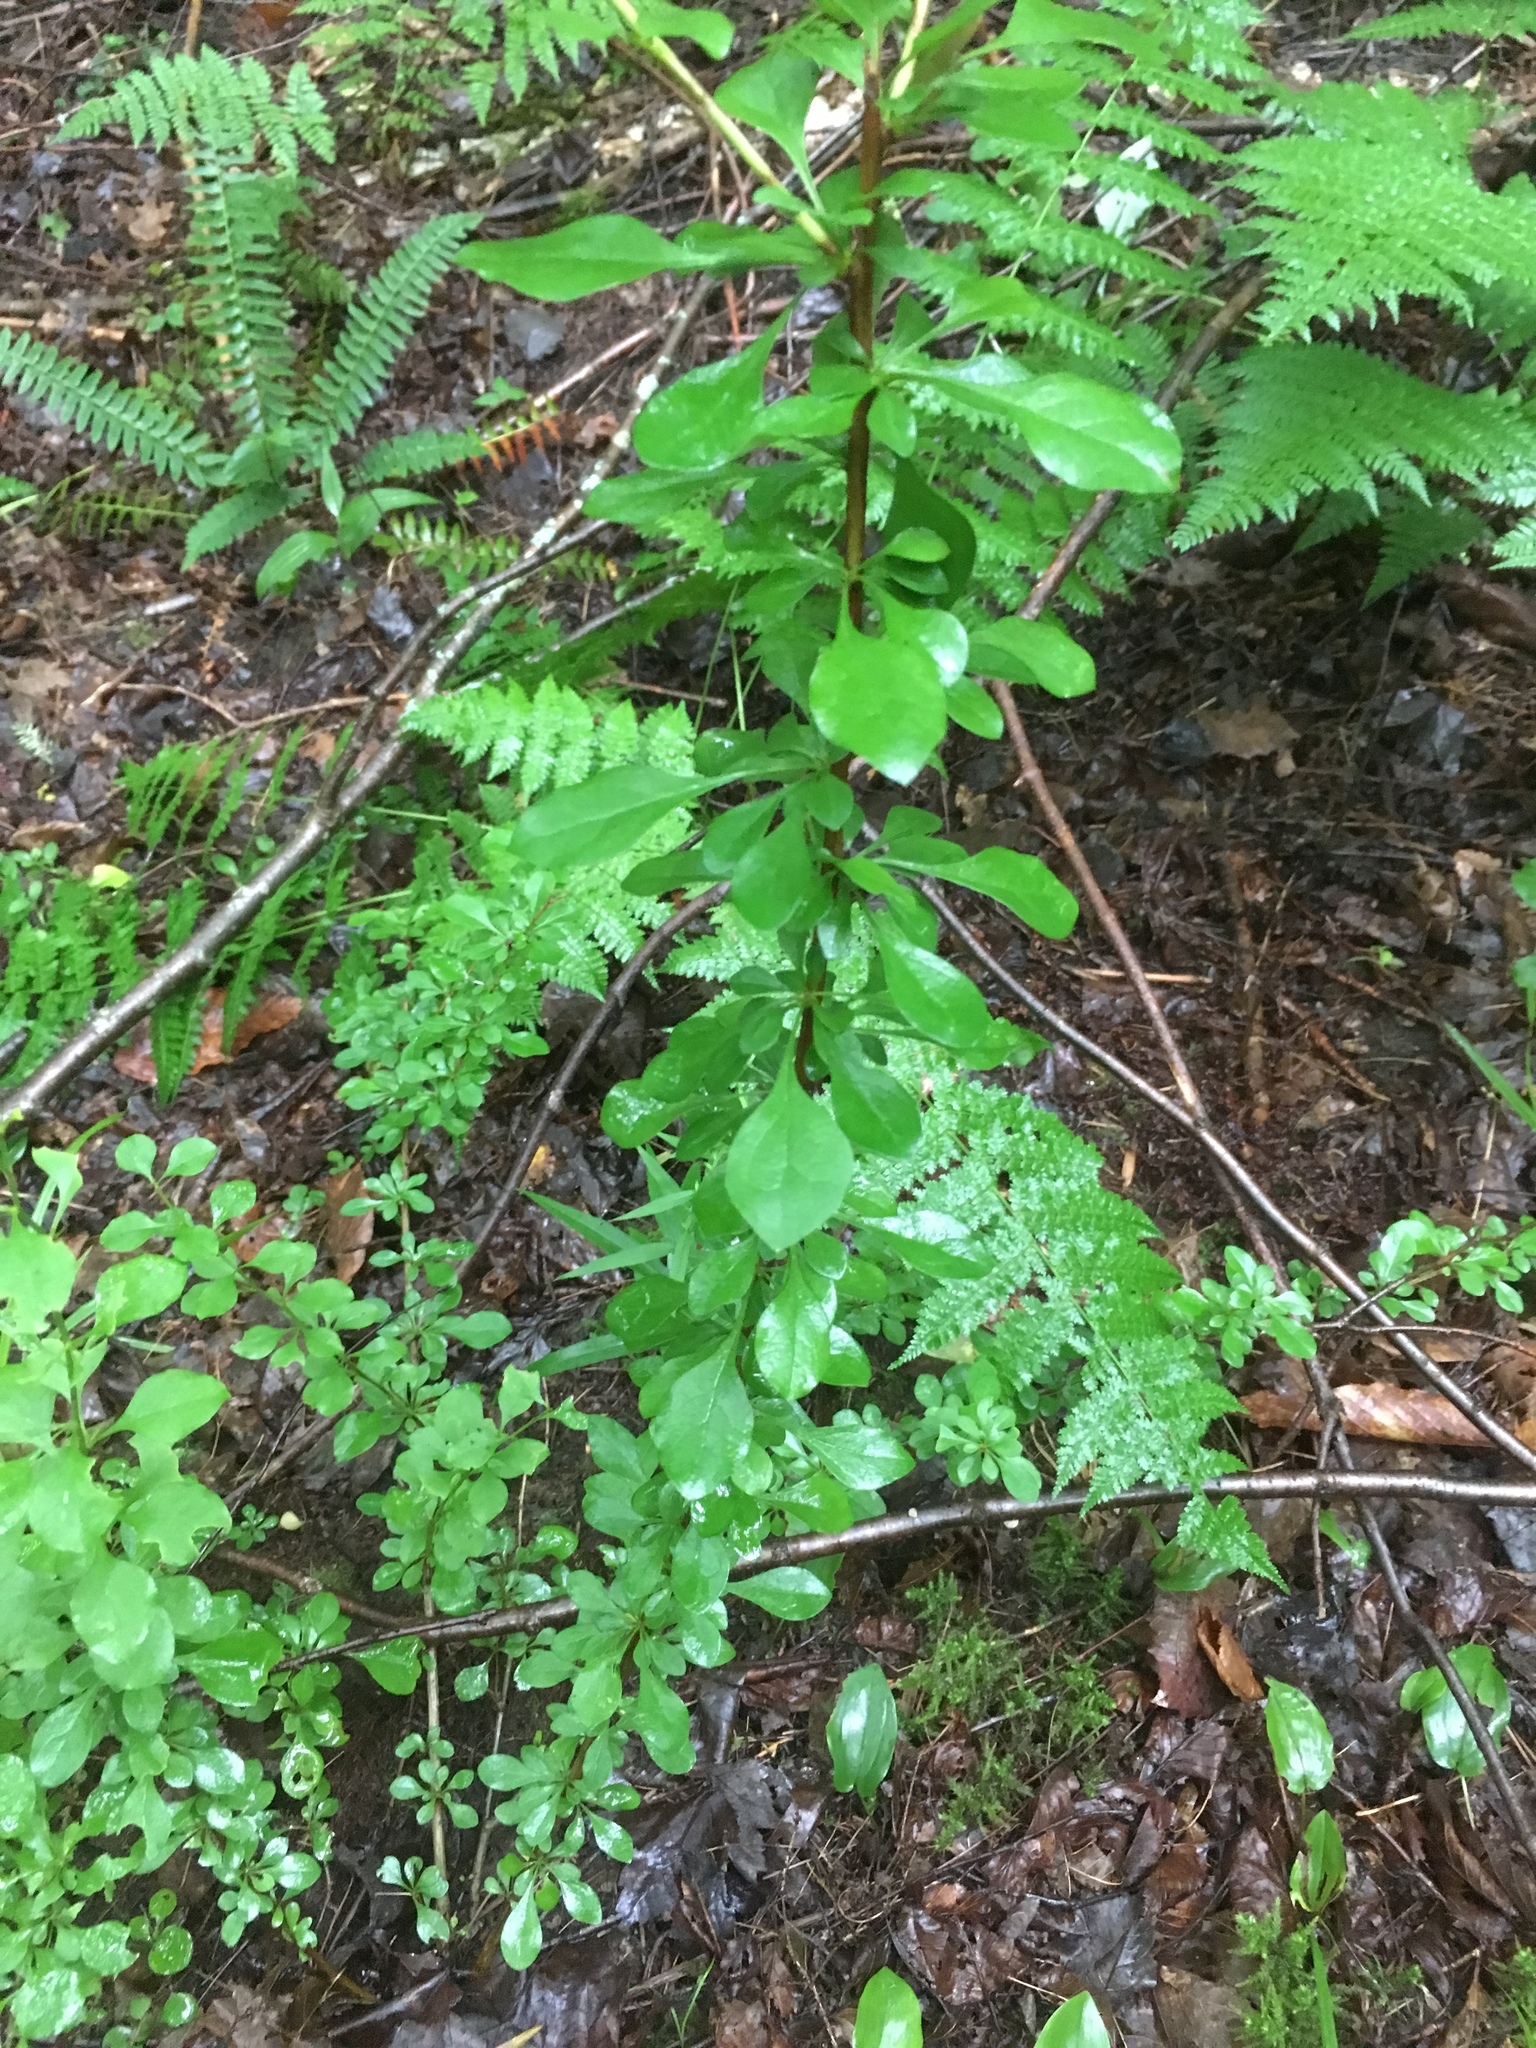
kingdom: Plantae
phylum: Tracheophyta
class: Magnoliopsida
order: Ranunculales
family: Berberidaceae
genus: Berberis
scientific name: Berberis thunbergii
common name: Japanese barberry
